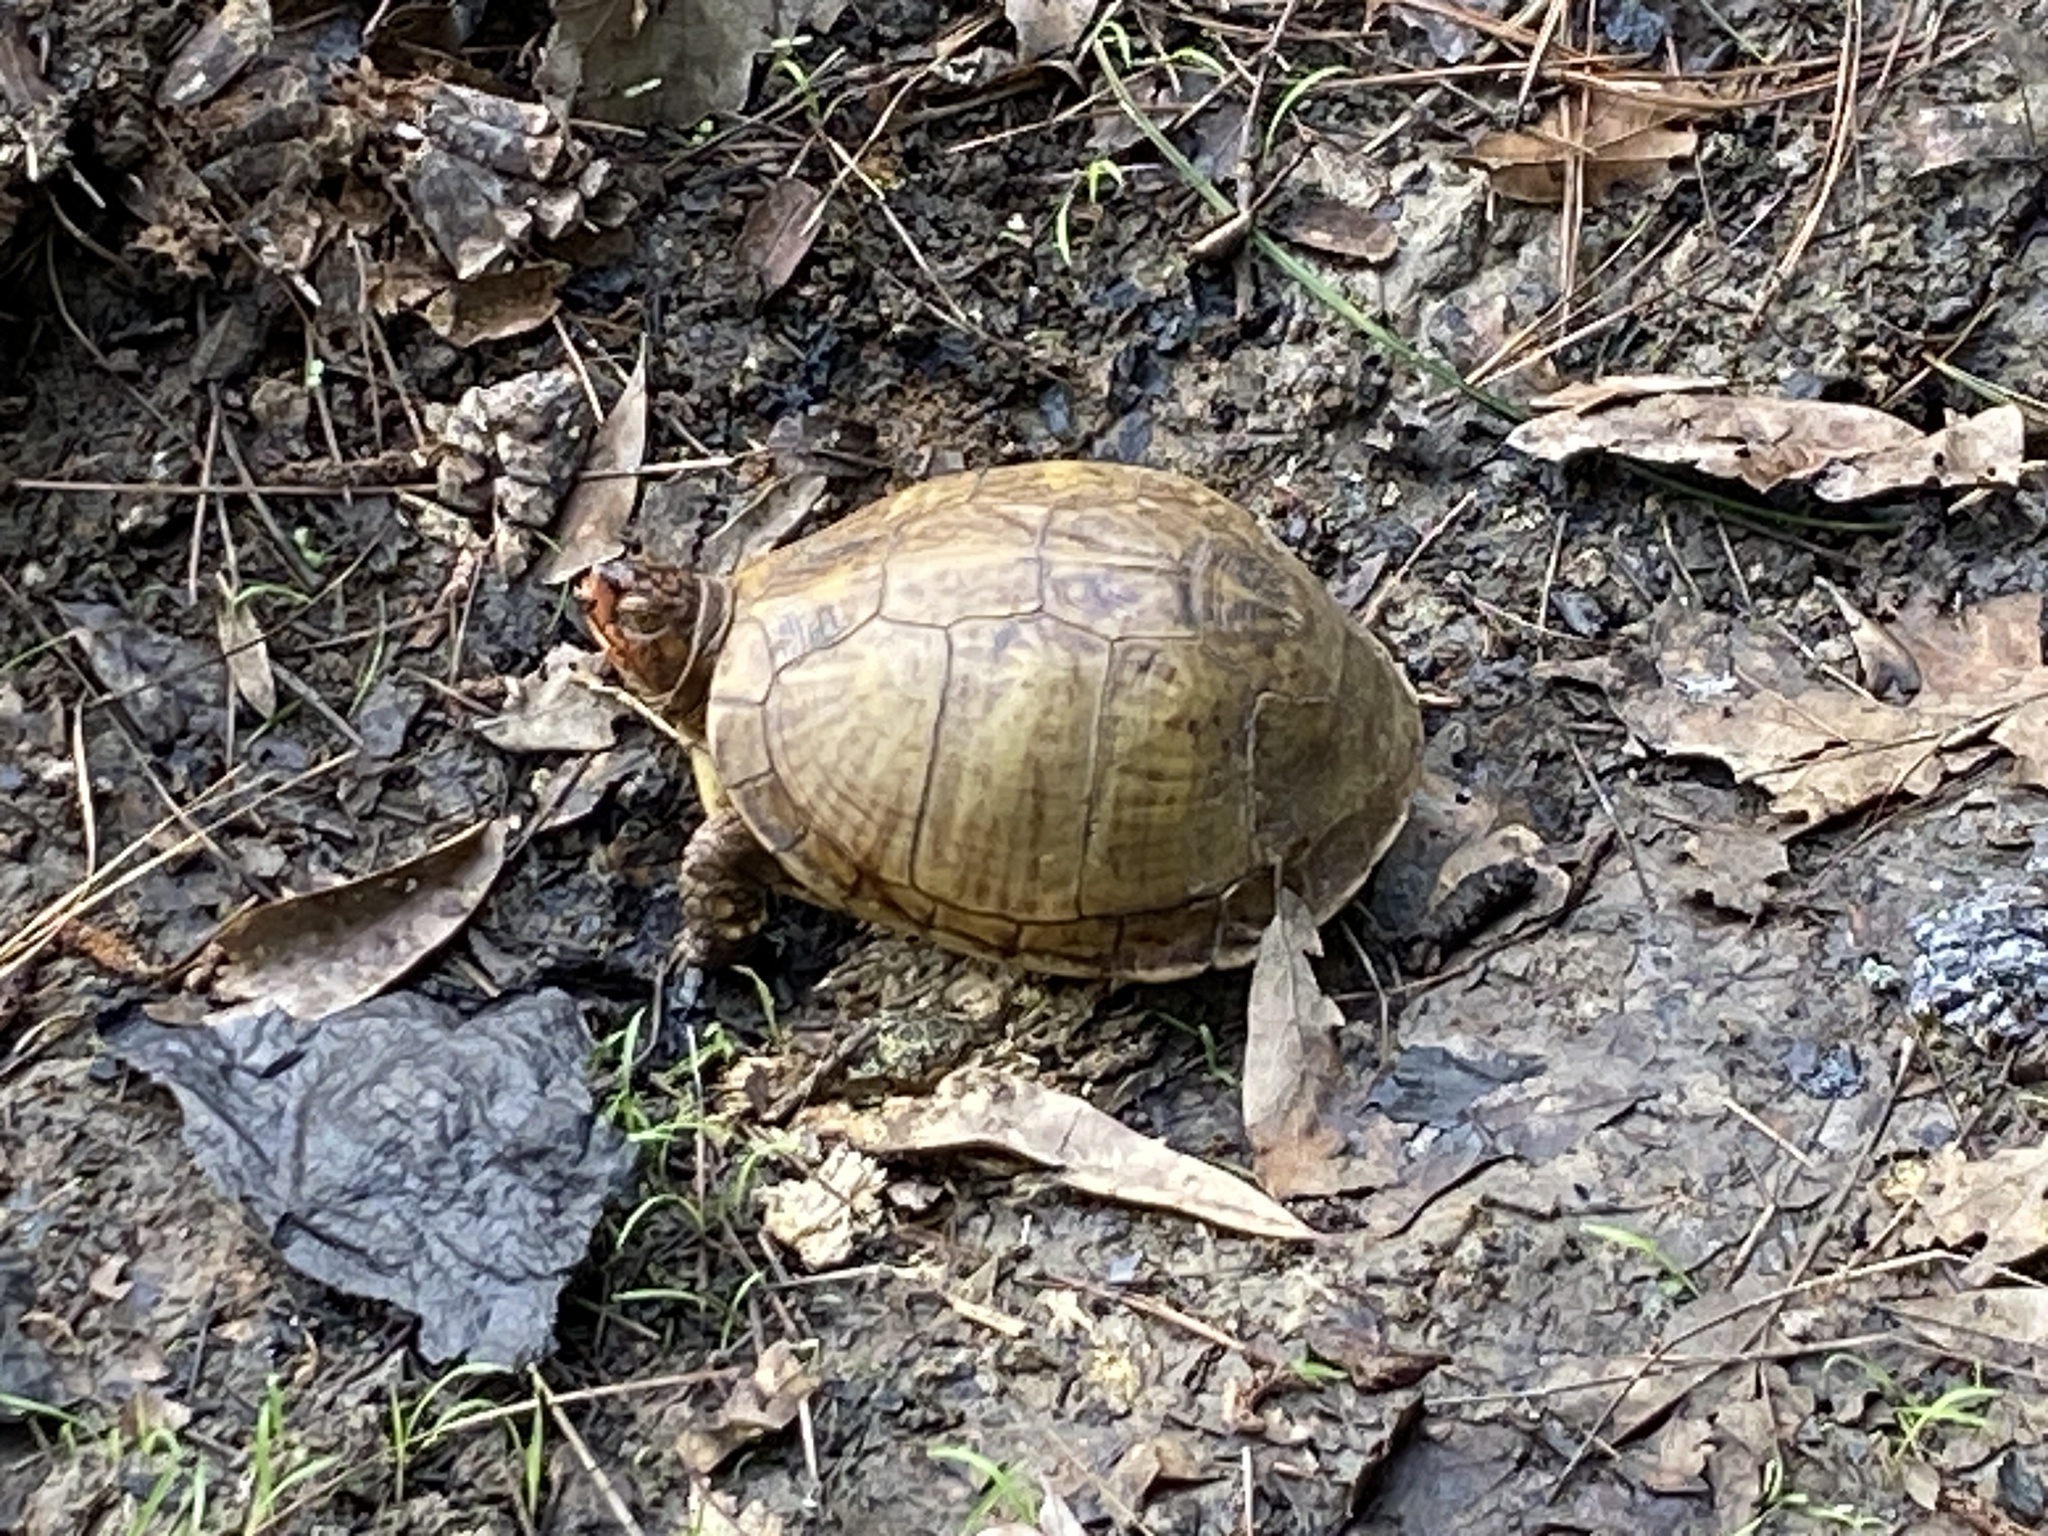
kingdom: Animalia
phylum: Chordata
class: Testudines
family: Emydidae
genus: Terrapene
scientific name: Terrapene carolina
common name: Common box turtle
